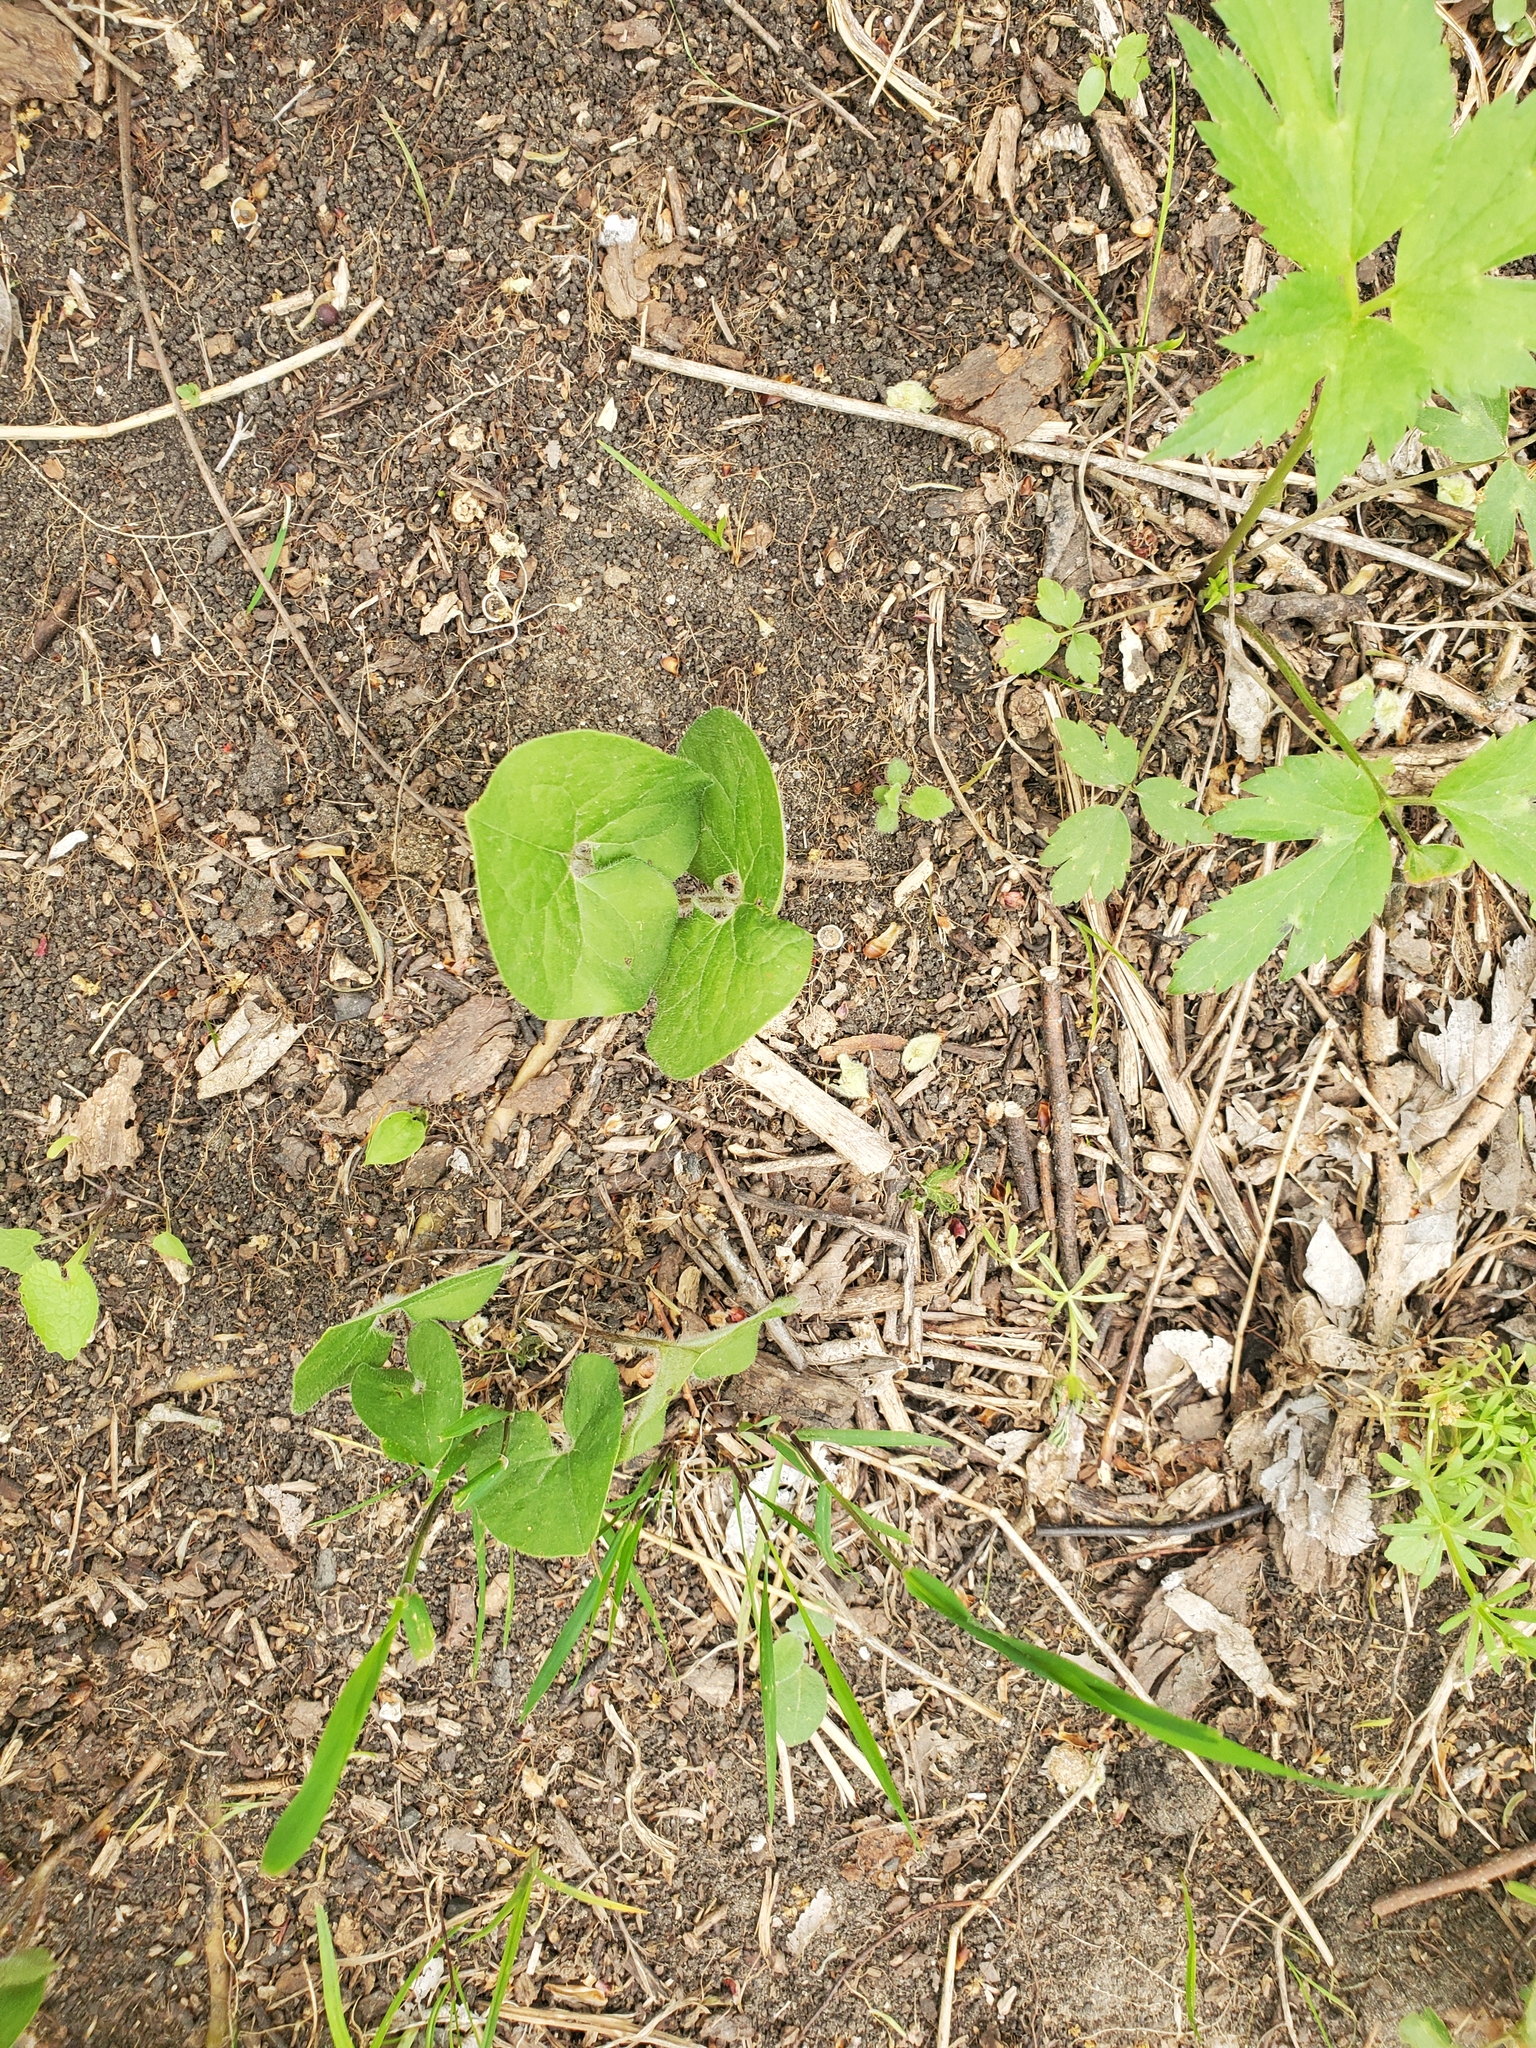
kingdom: Plantae
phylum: Tracheophyta
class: Magnoliopsida
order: Piperales
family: Aristolochiaceae
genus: Asarum
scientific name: Asarum canadense
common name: Wild ginger
